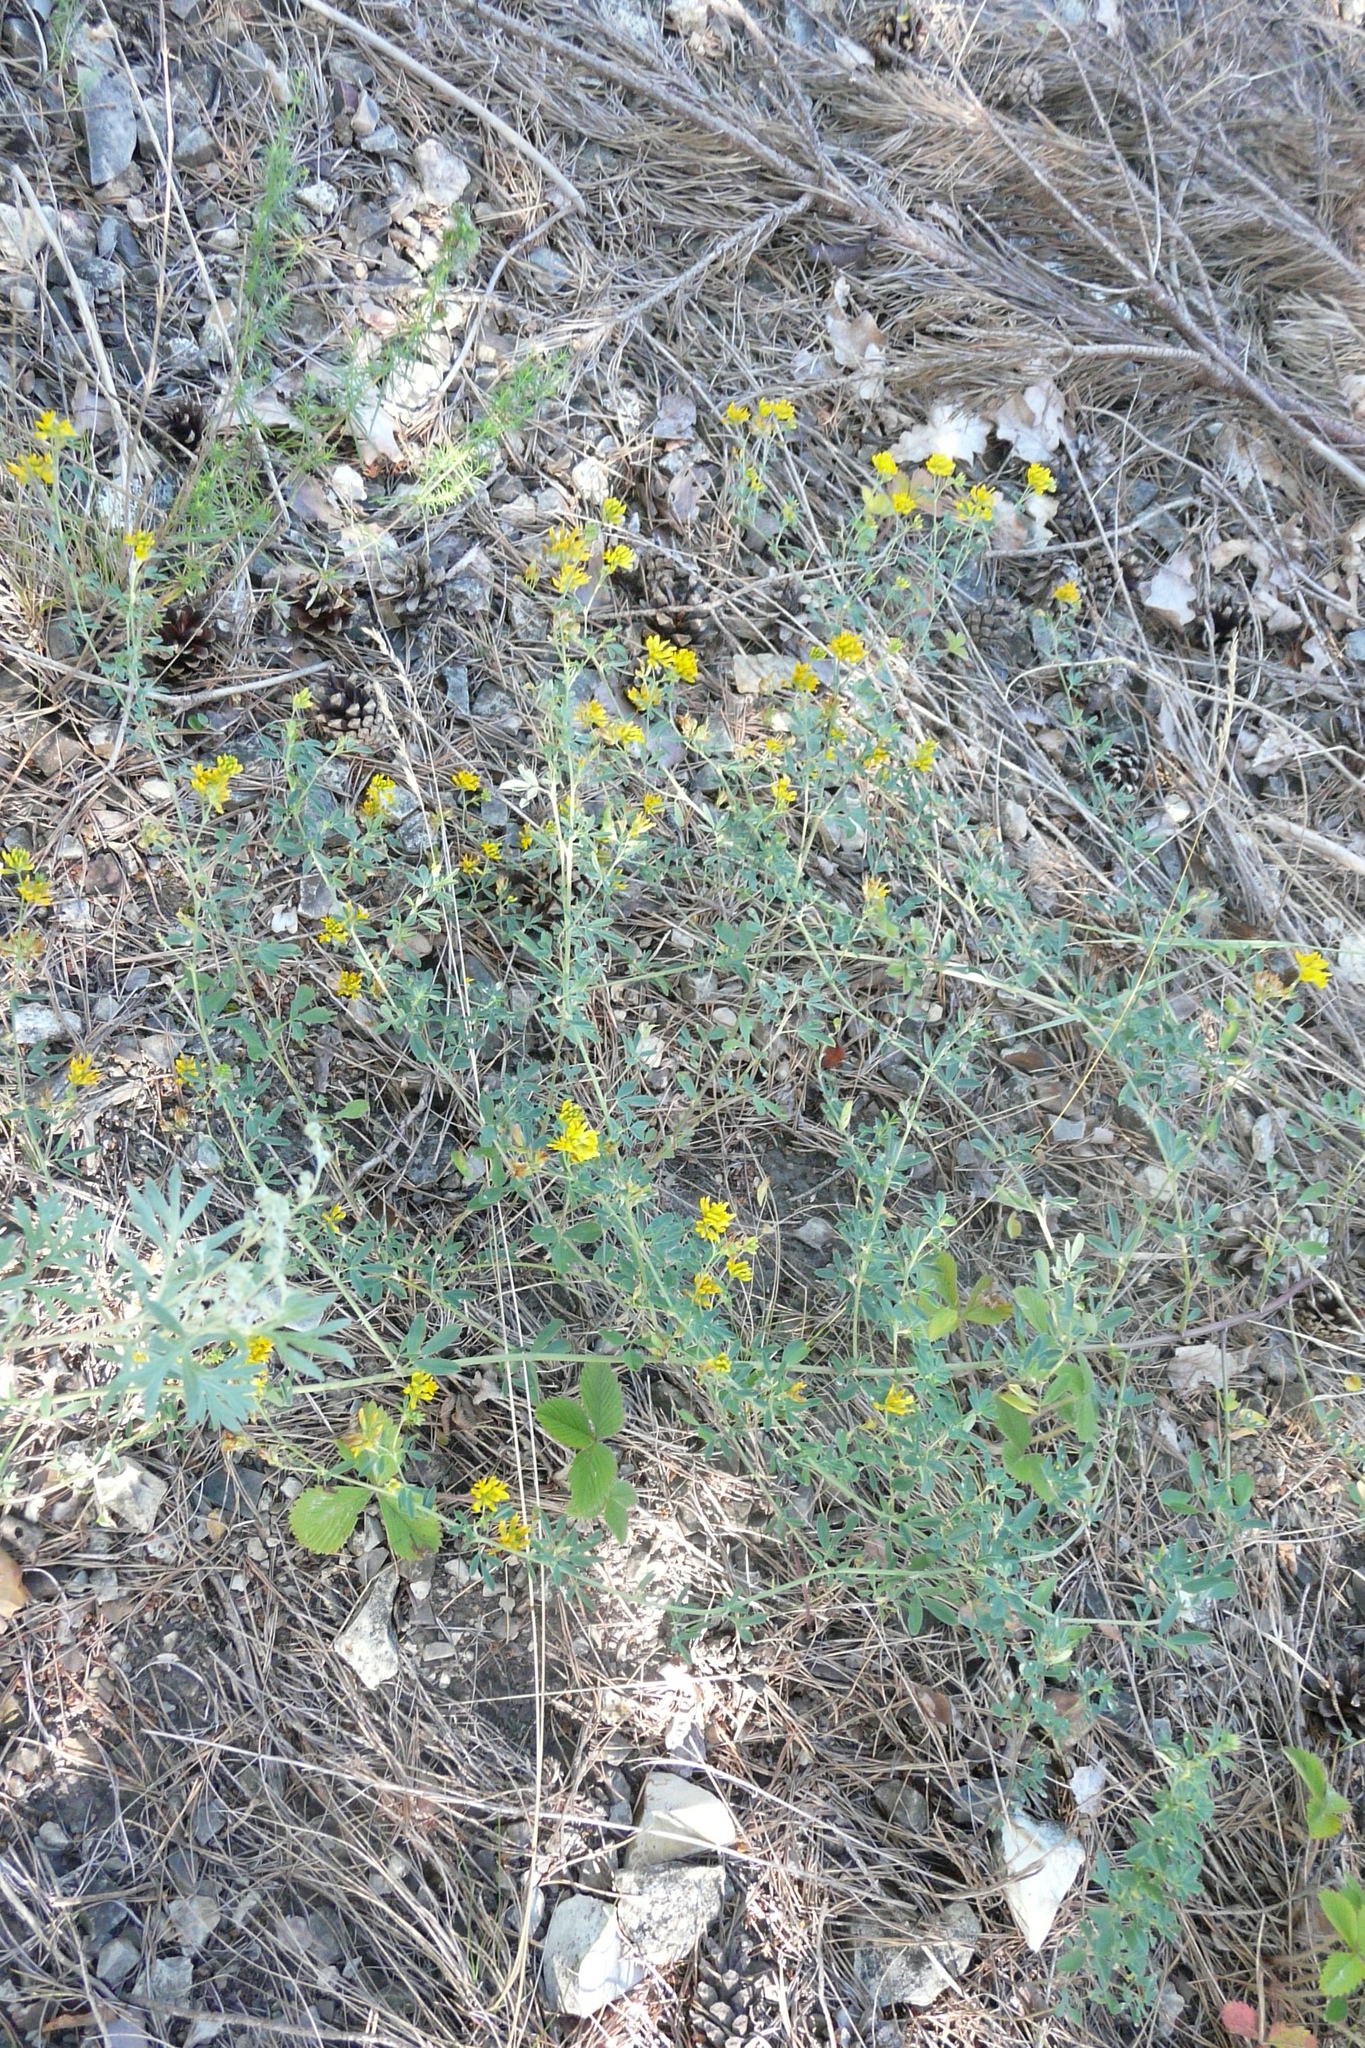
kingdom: Plantae
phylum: Tracheophyta
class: Magnoliopsida
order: Fabales
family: Fabaceae
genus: Medicago
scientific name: Medicago falcata
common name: Sickle medick
